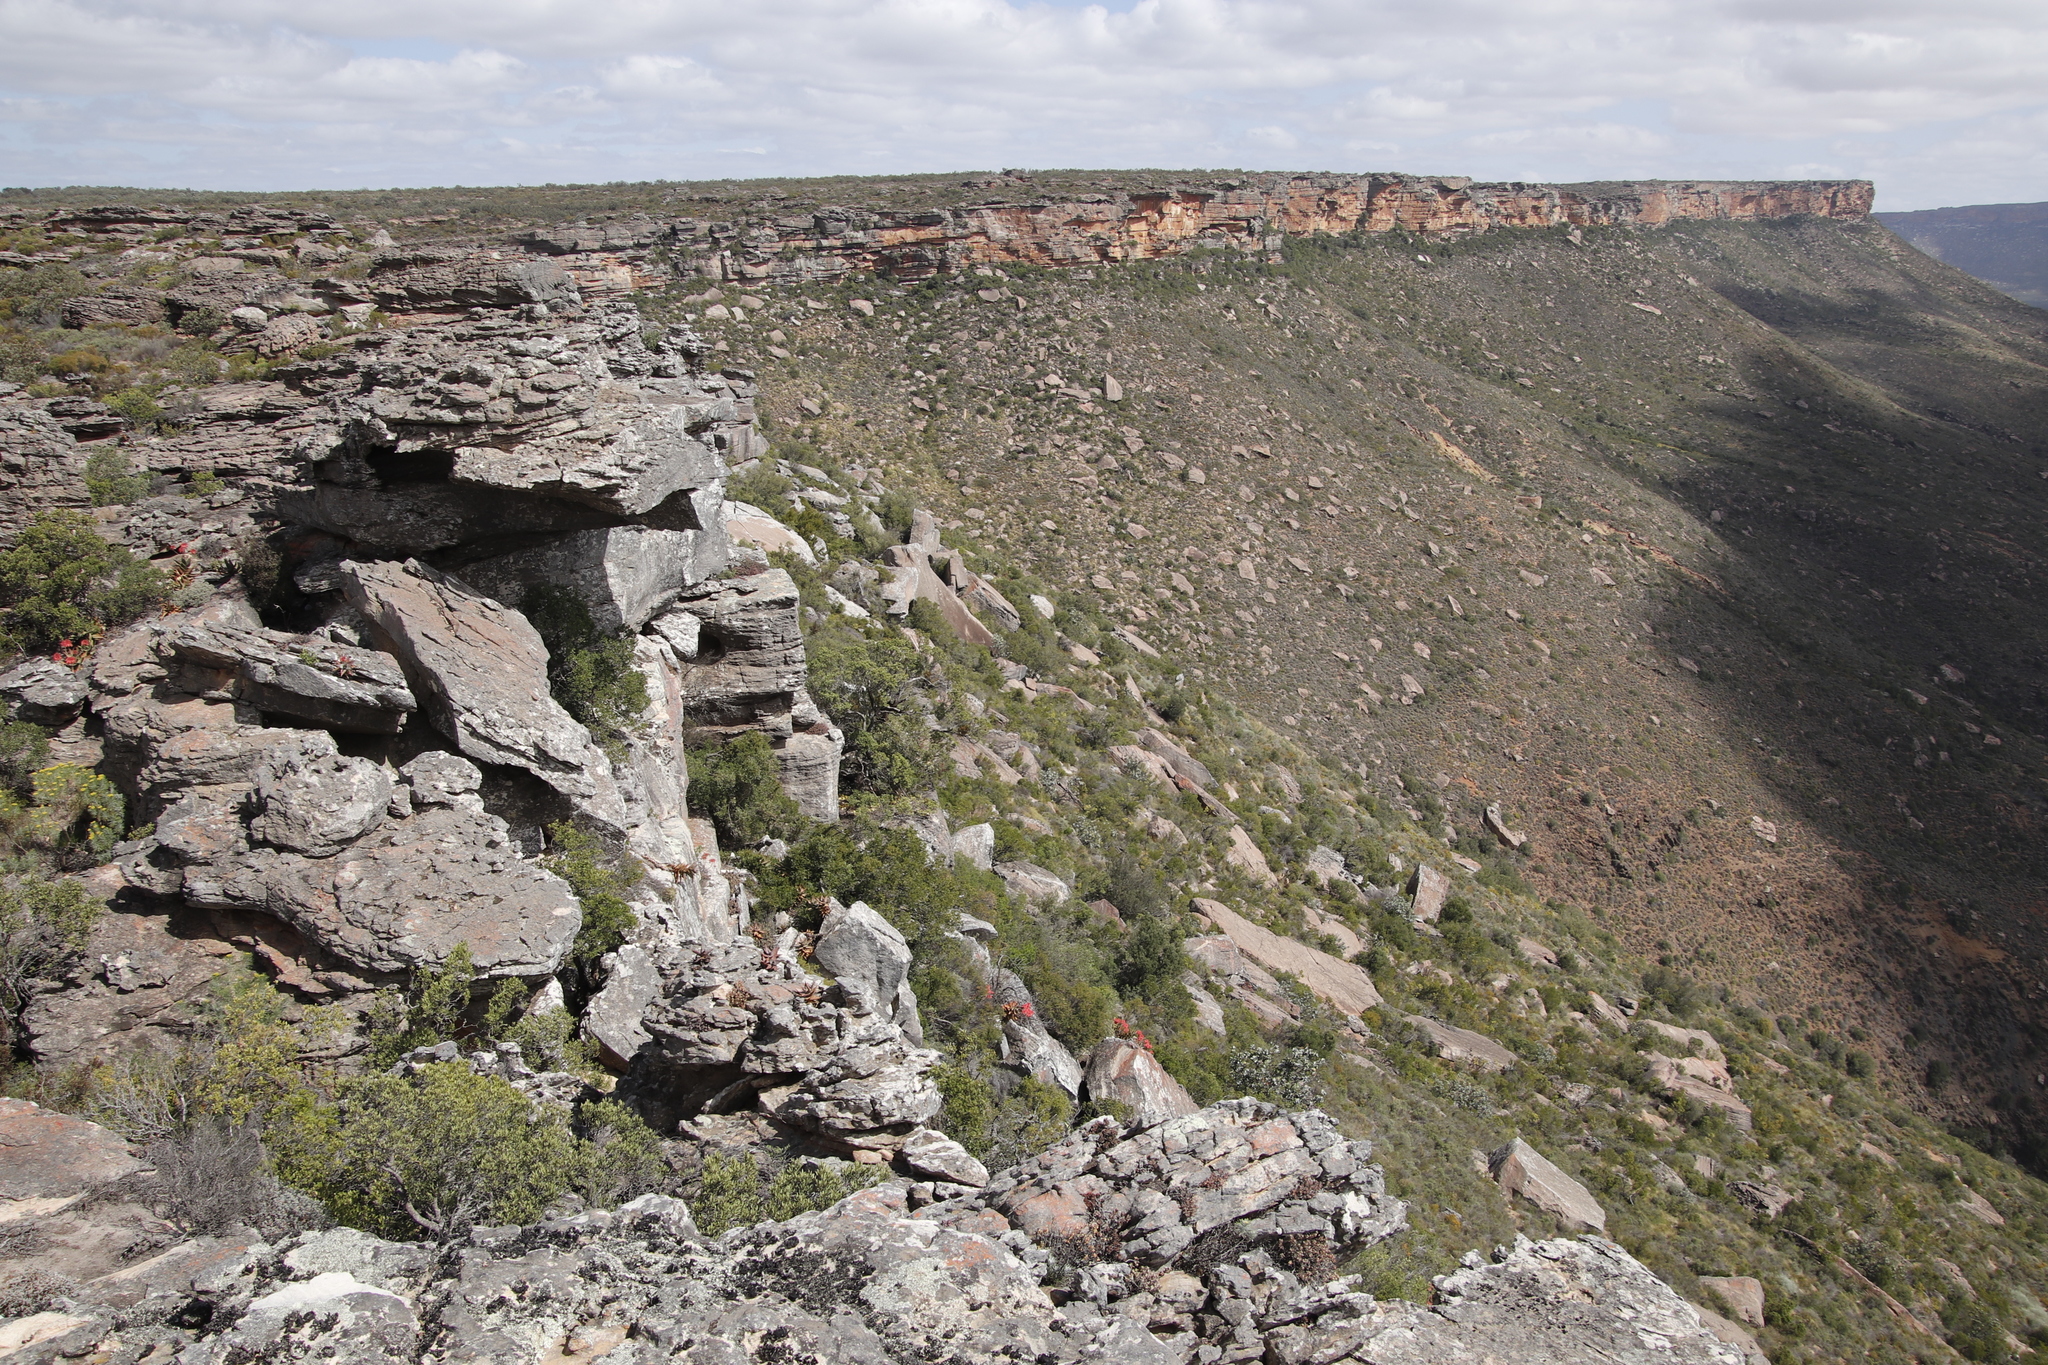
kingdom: Plantae
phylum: Tracheophyta
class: Liliopsida
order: Asparagales
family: Asphodelaceae
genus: Aloe
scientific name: Aloe perfoliata
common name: Mitra aloe
